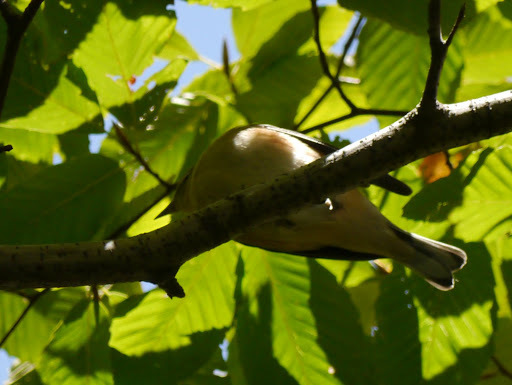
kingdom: Animalia
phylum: Chordata
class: Aves
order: Passeriformes
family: Parulidae
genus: Setophaga
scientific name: Setophaga castanea
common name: Bay-breasted warbler
